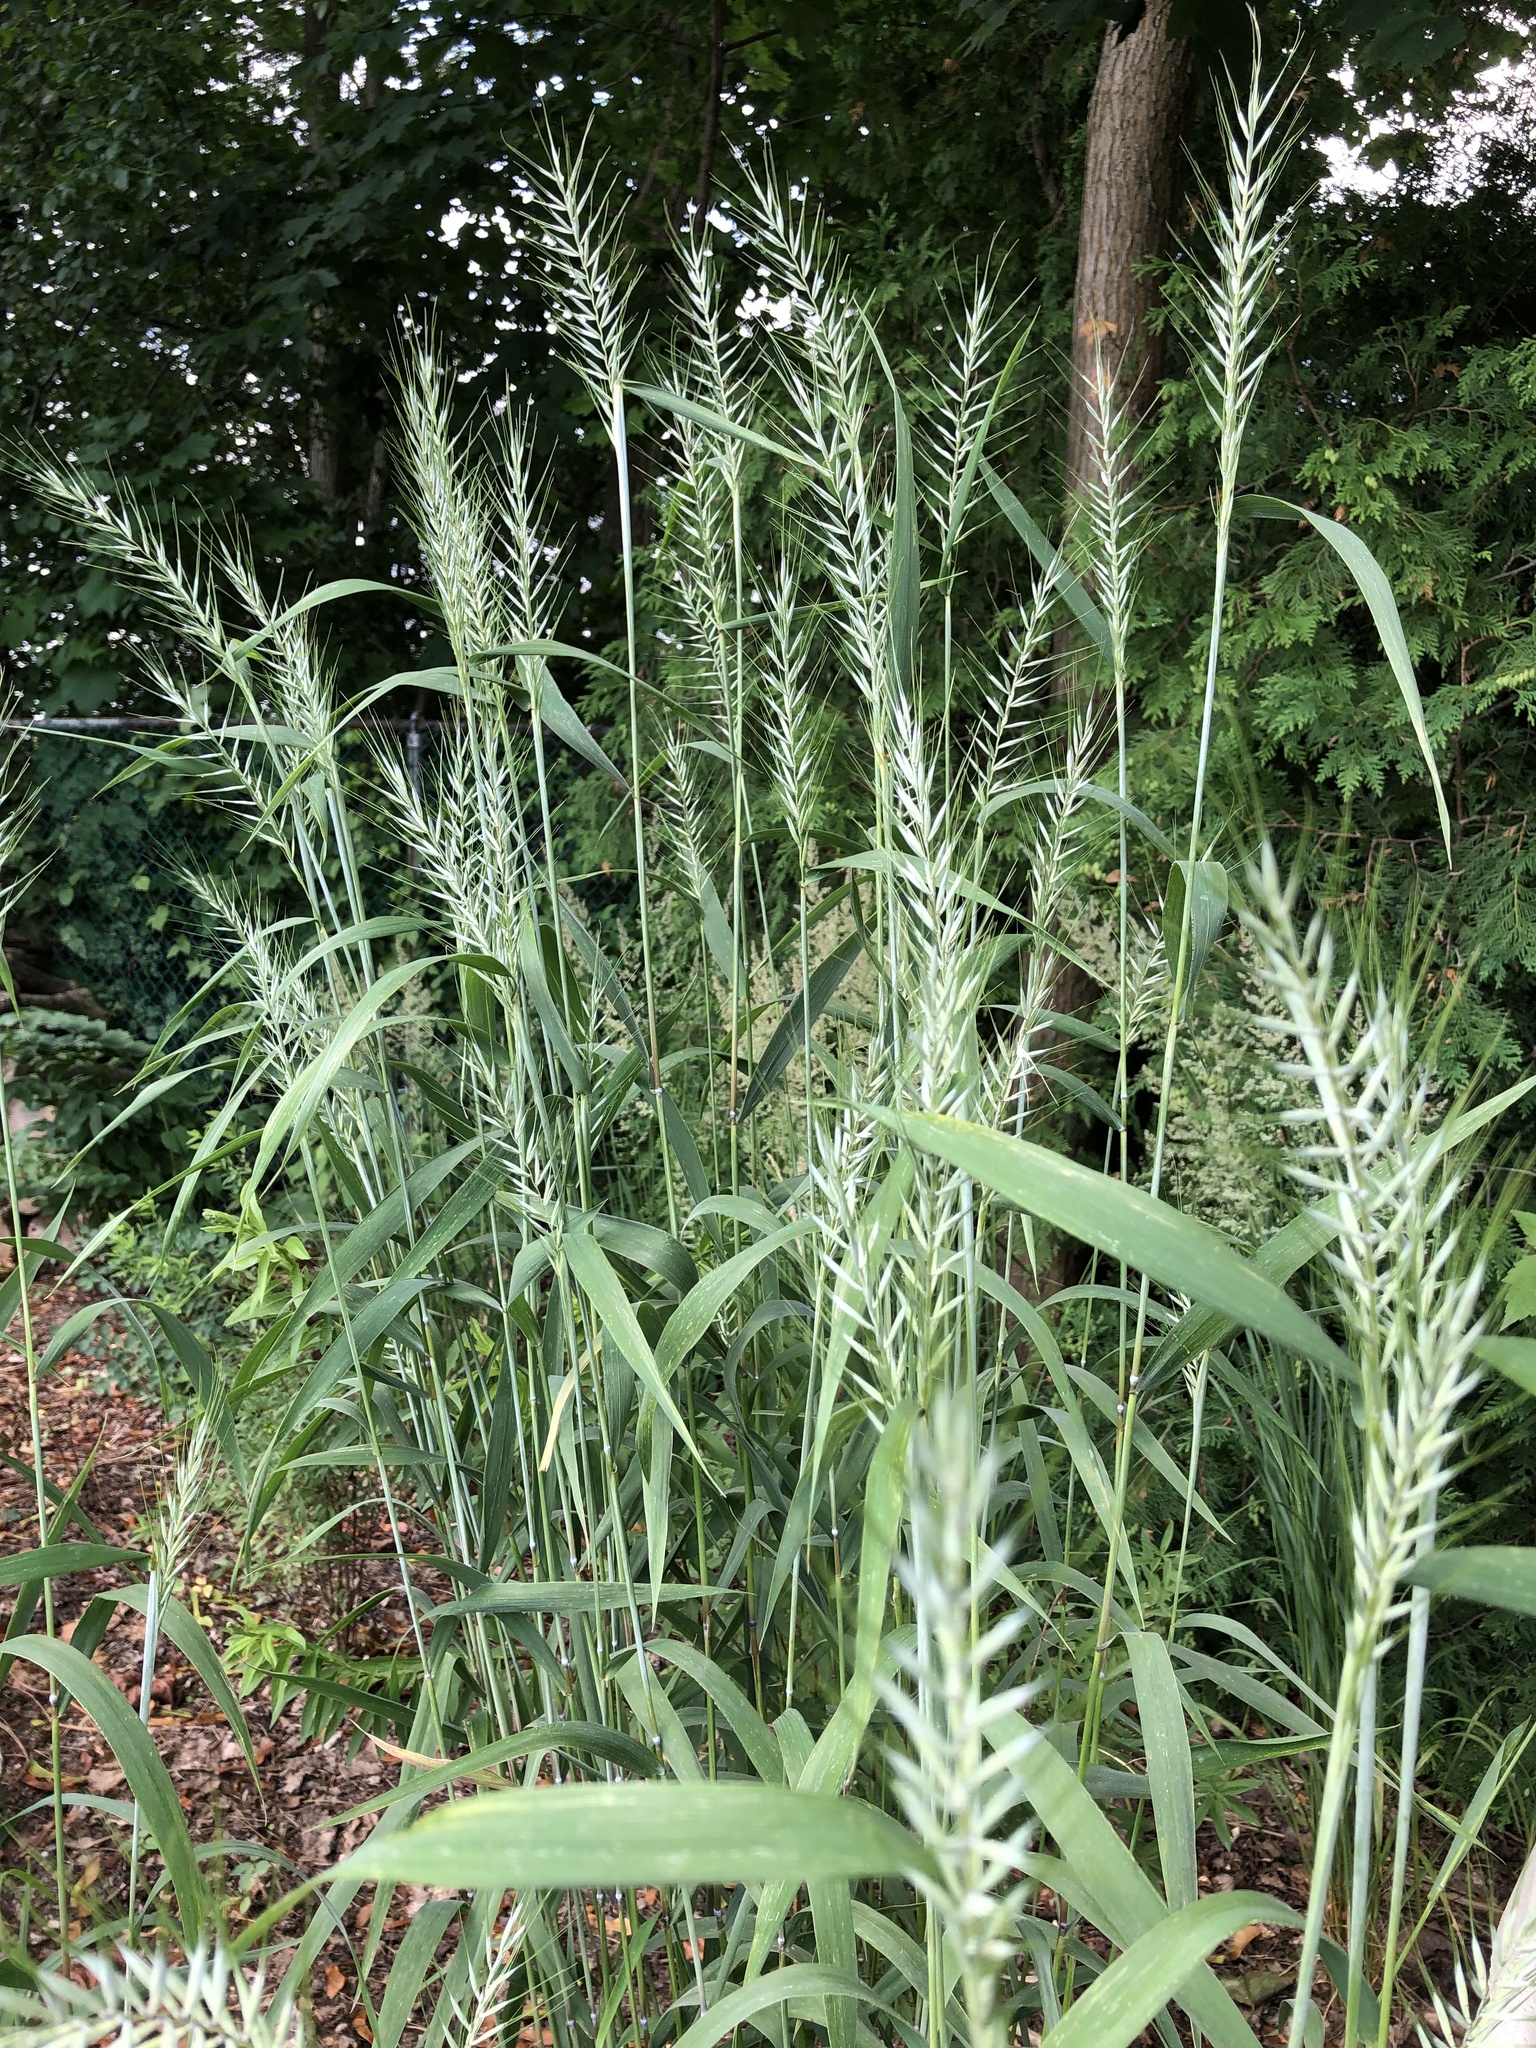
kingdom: Plantae
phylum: Tracheophyta
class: Liliopsida
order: Poales
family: Poaceae
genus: Elymus
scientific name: Elymus hystrix
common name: Bottlebrush grass
